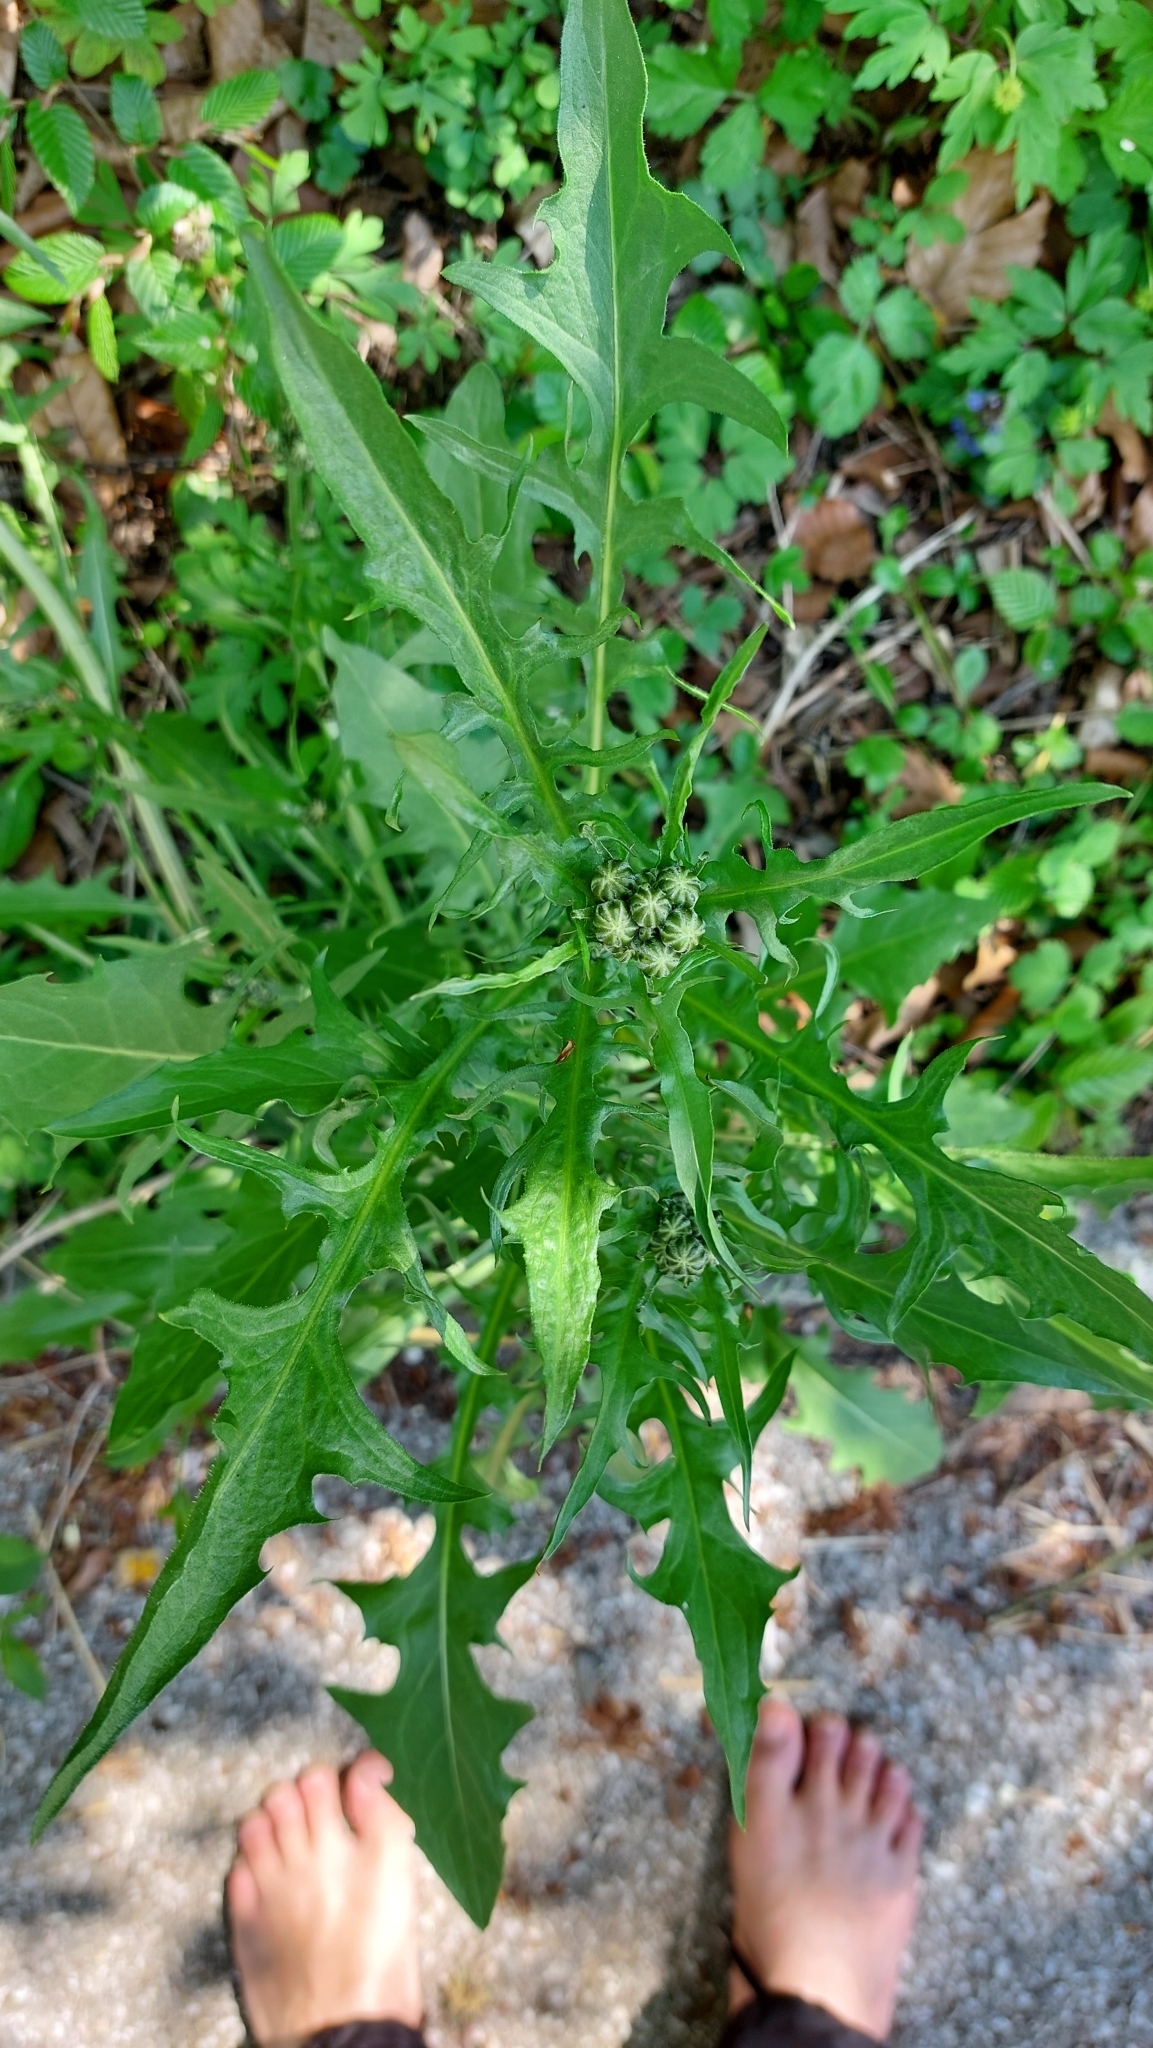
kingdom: Plantae
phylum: Tracheophyta
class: Magnoliopsida
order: Asterales
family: Asteraceae
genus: Crepis
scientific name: Crepis biennis
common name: Rough hawk's-beard
